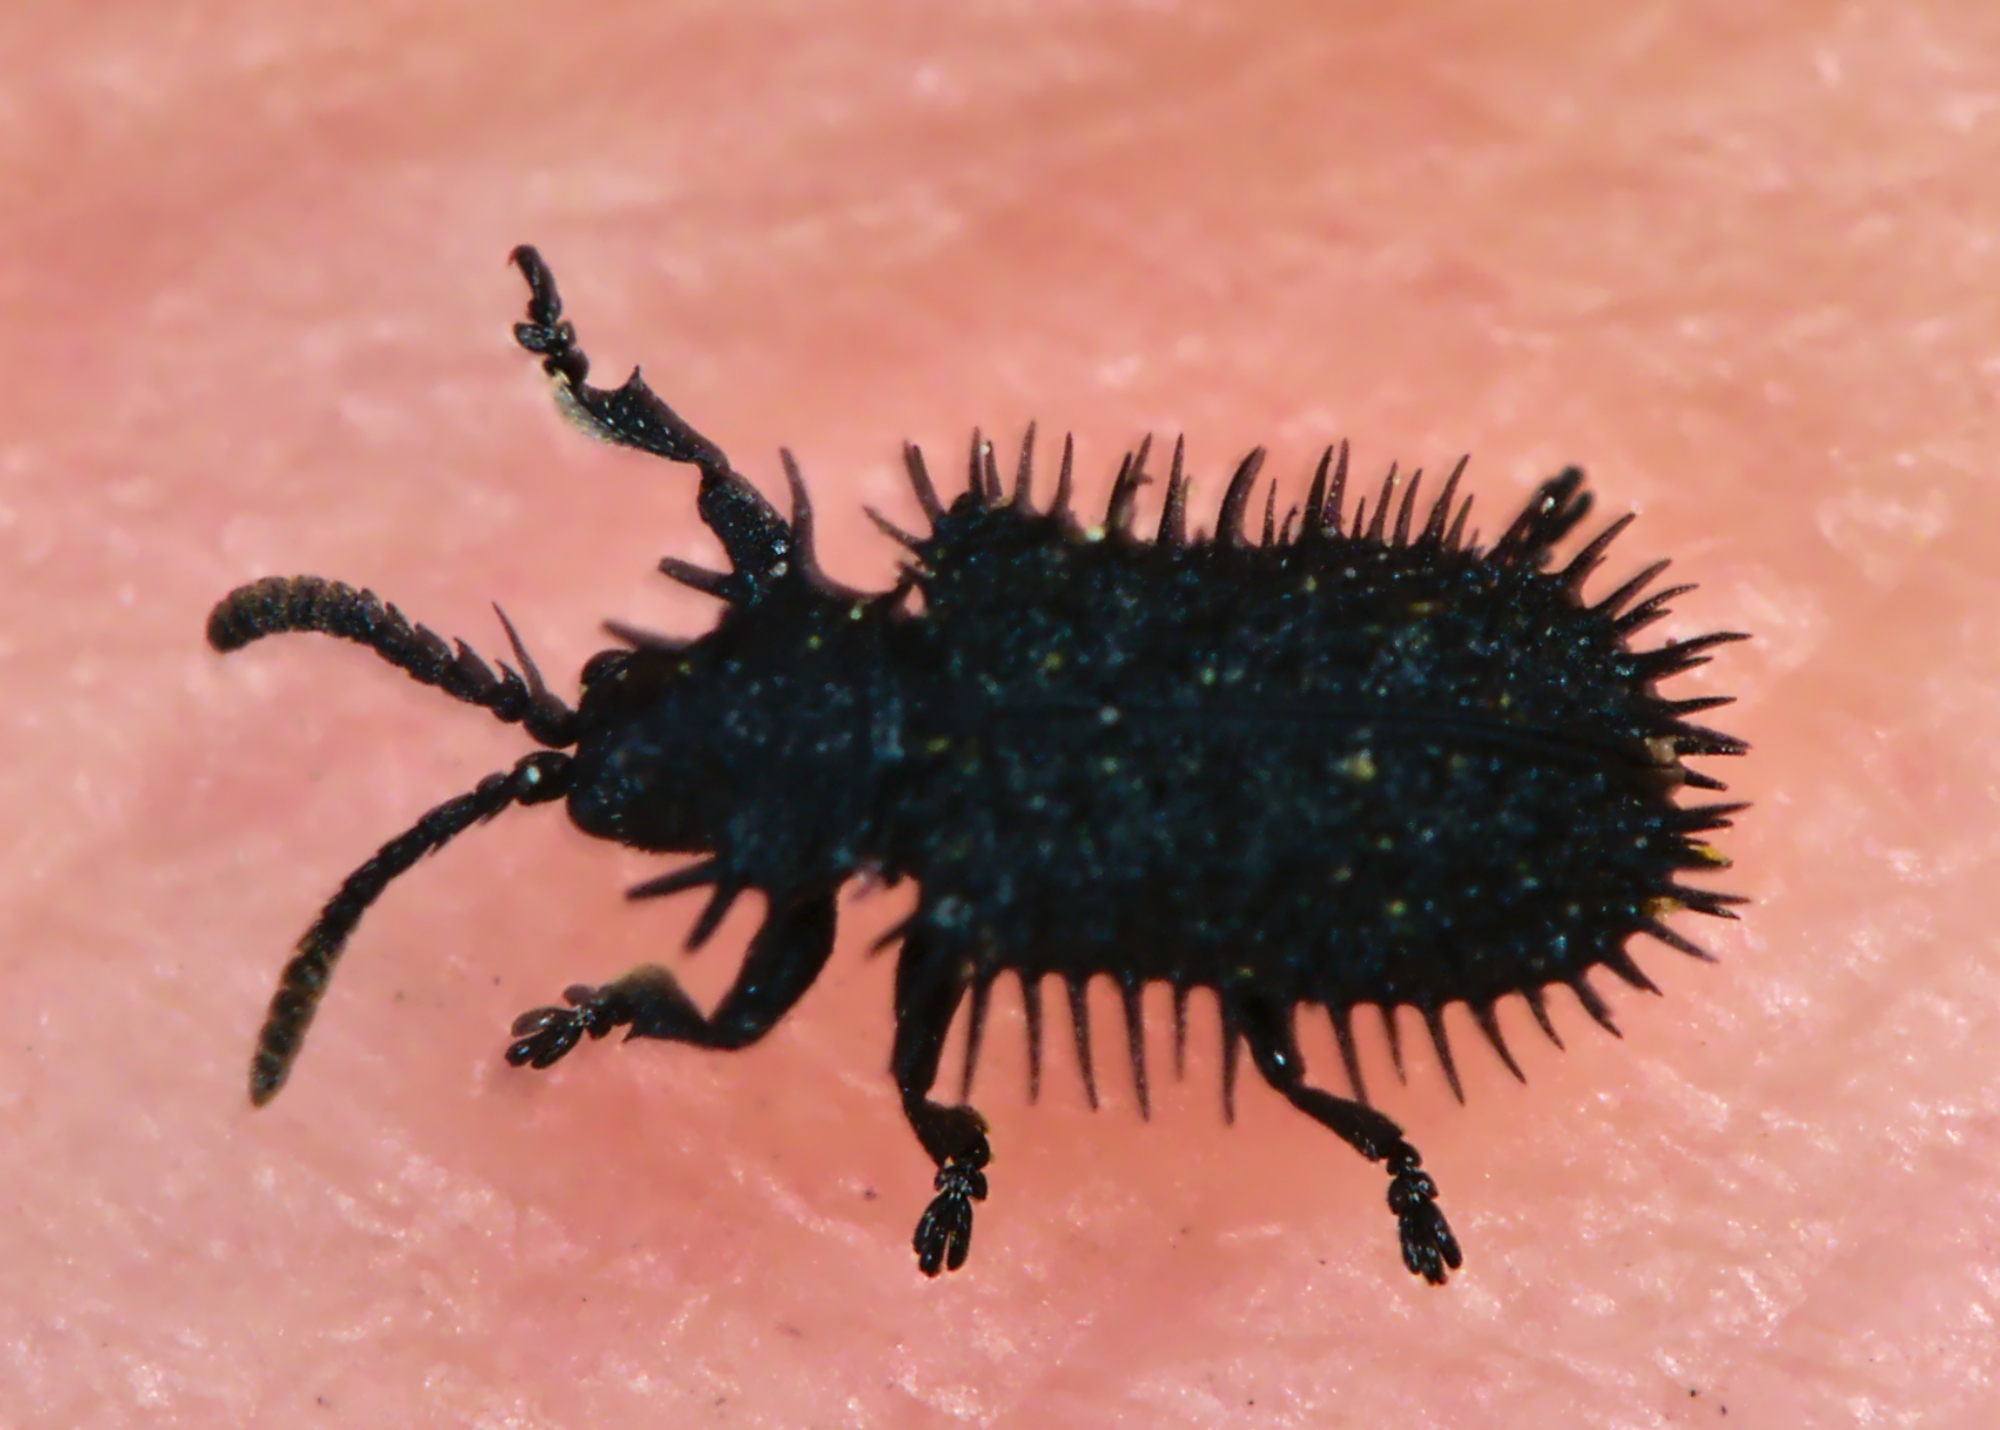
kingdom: Animalia
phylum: Arthropoda
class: Insecta
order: Coleoptera
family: Chrysomelidae
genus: Hispa
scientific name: Hispa atra
